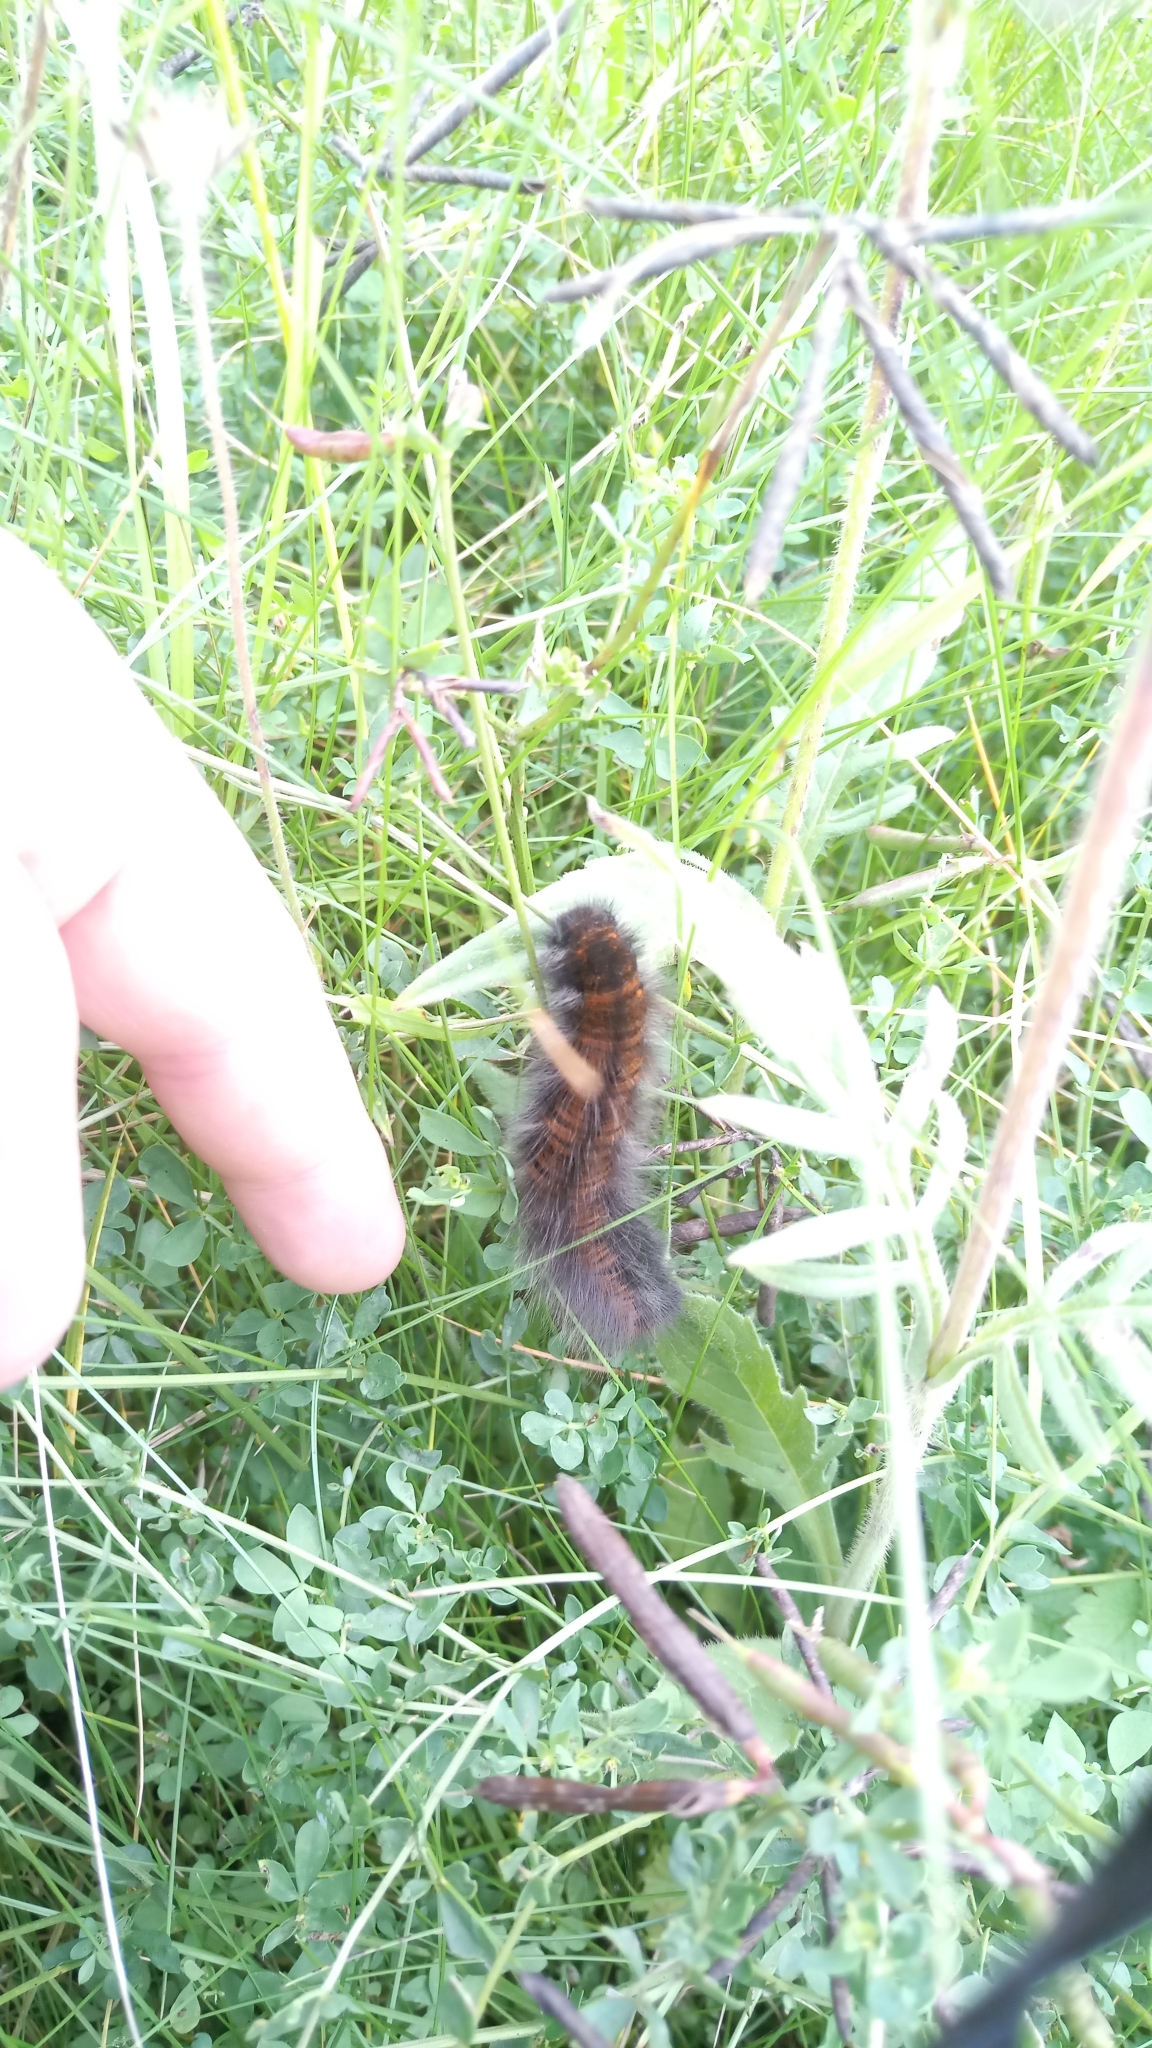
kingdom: Animalia
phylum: Arthropoda
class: Insecta
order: Lepidoptera
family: Lasiocampidae
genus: Macrothylacia
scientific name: Macrothylacia rubi
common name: Fox moth
